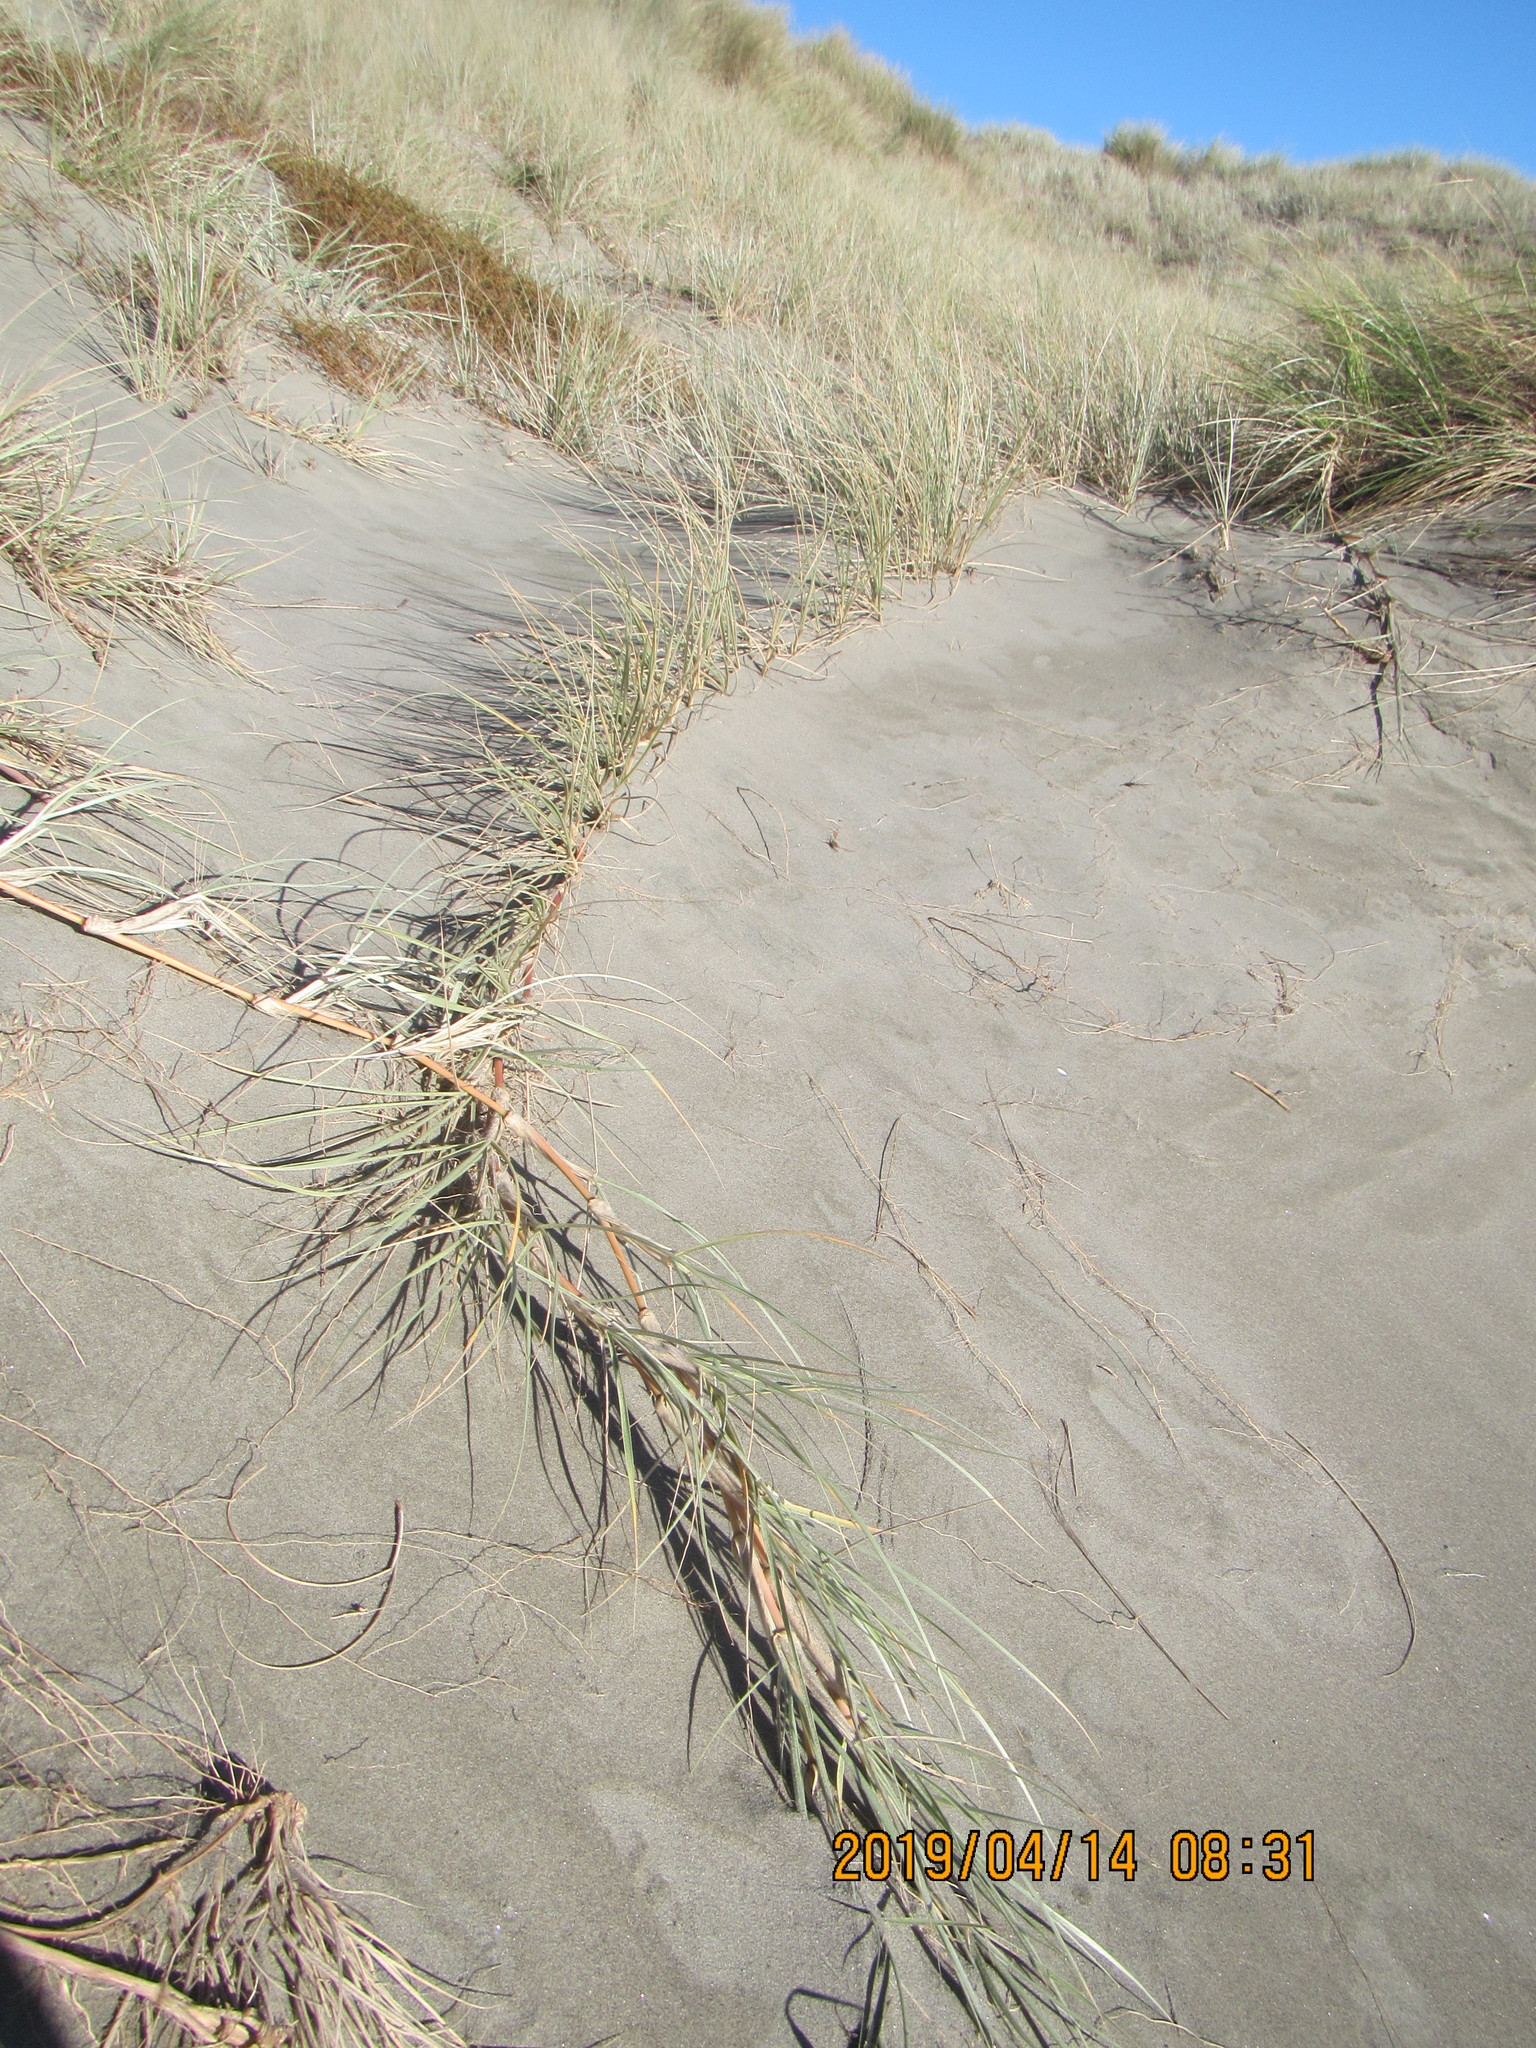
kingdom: Plantae
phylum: Tracheophyta
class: Liliopsida
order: Poales
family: Poaceae
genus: Spinifex
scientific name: Spinifex sericeus
